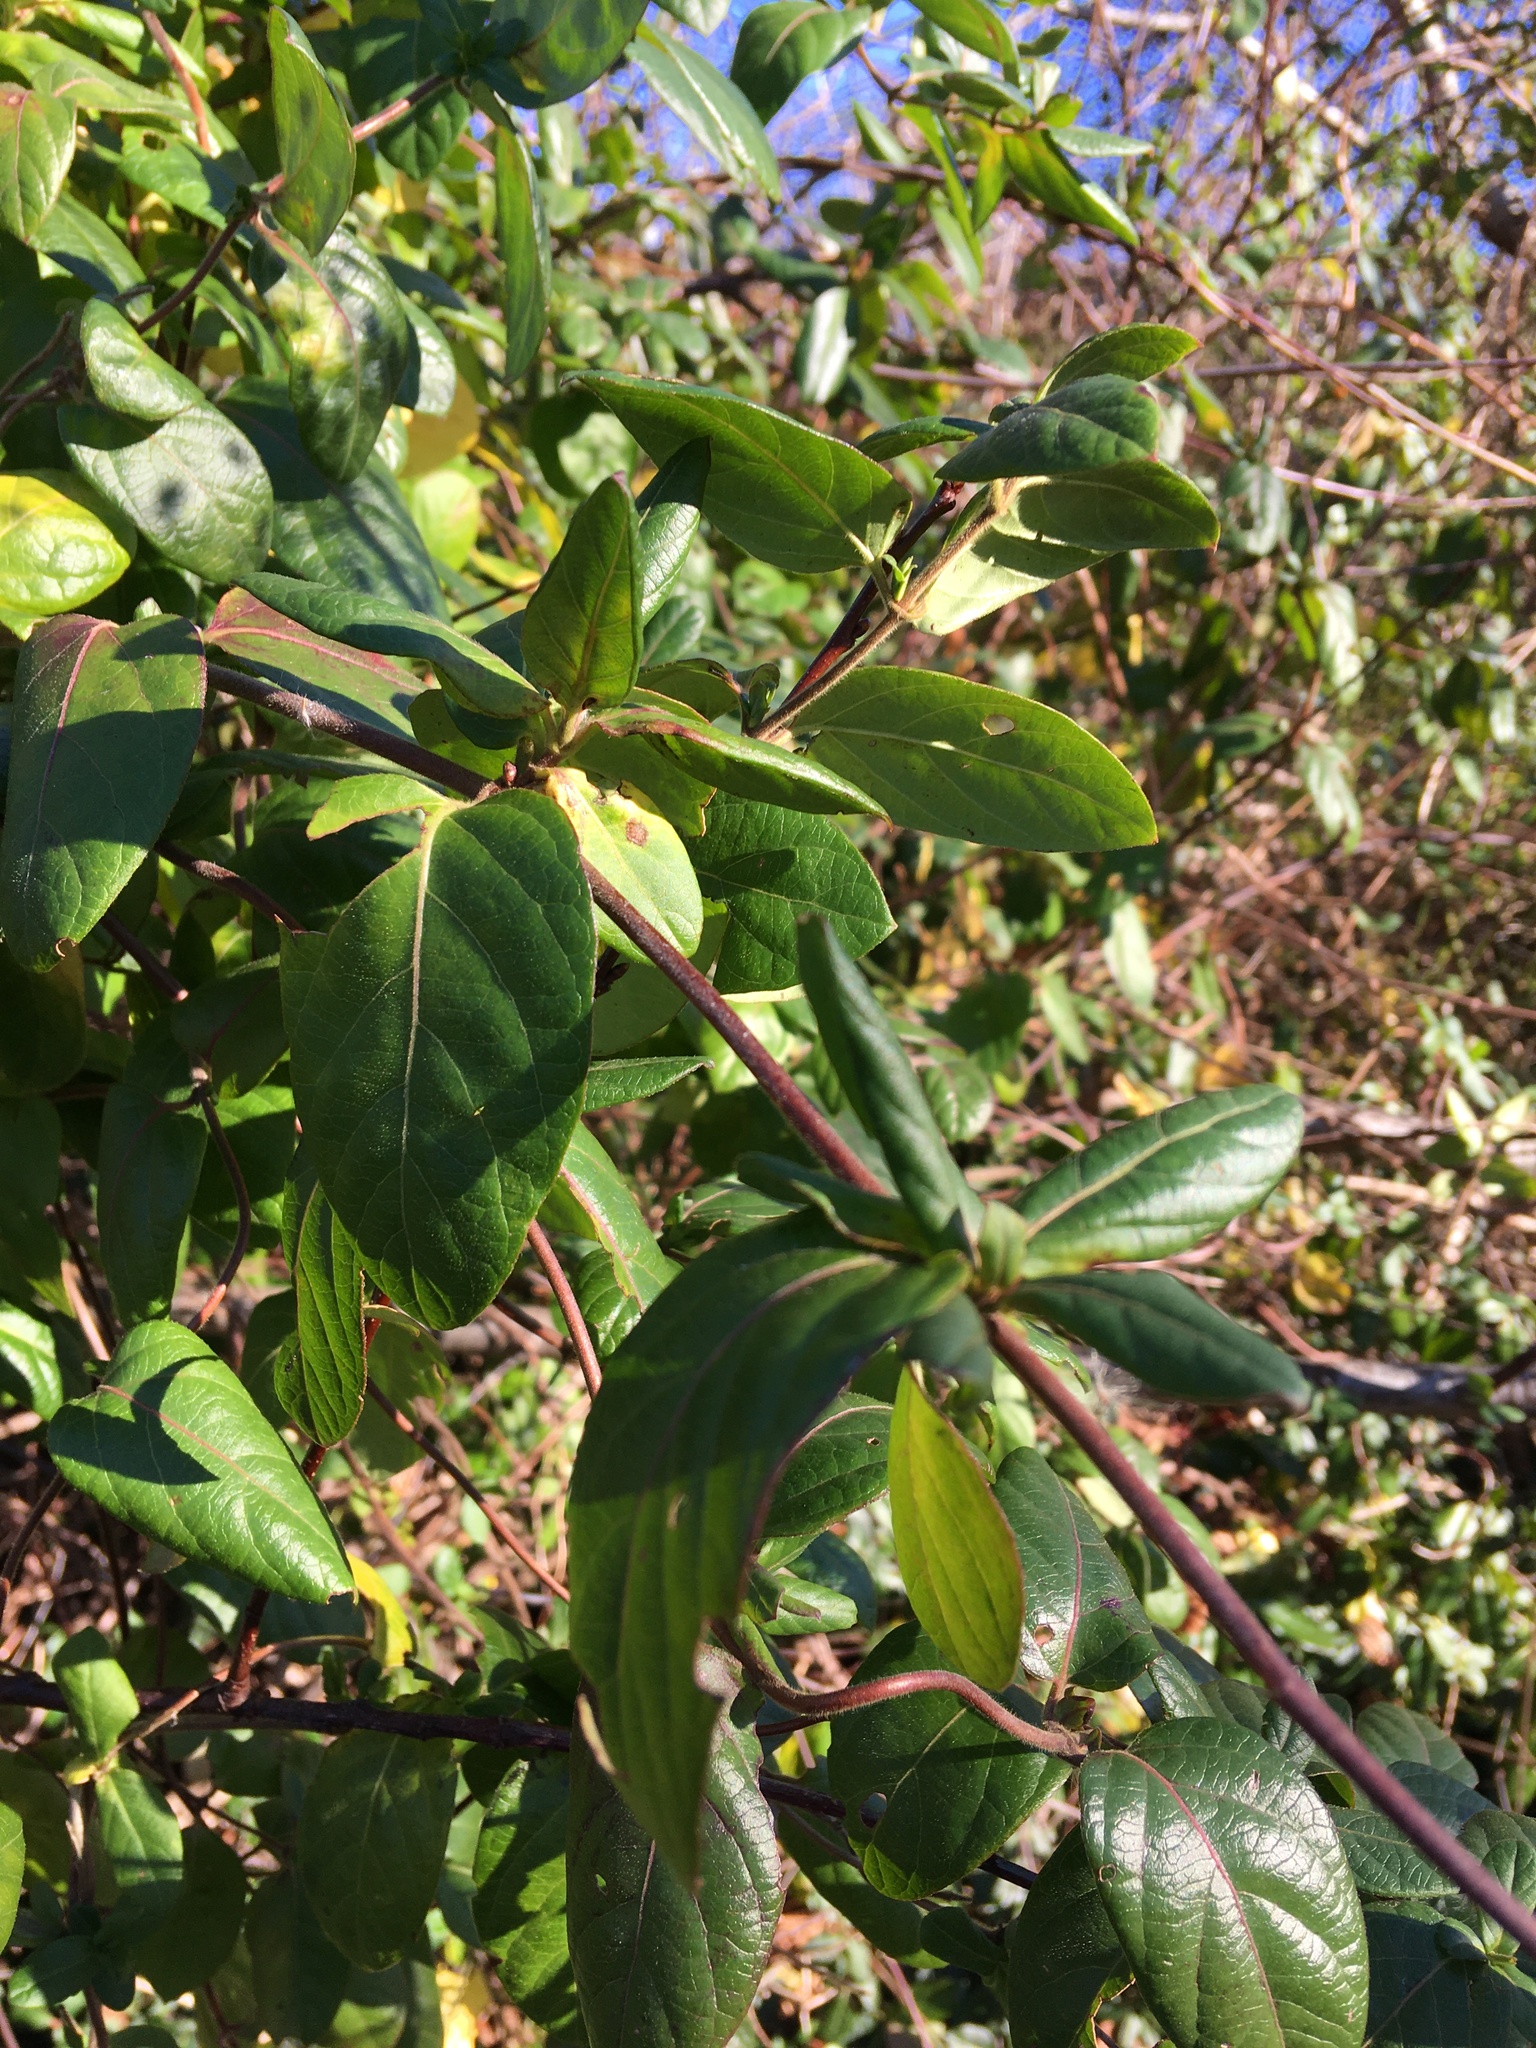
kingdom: Plantae
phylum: Tracheophyta
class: Magnoliopsida
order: Dipsacales
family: Caprifoliaceae
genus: Lonicera
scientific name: Lonicera japonica
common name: Japanese honeysuckle
